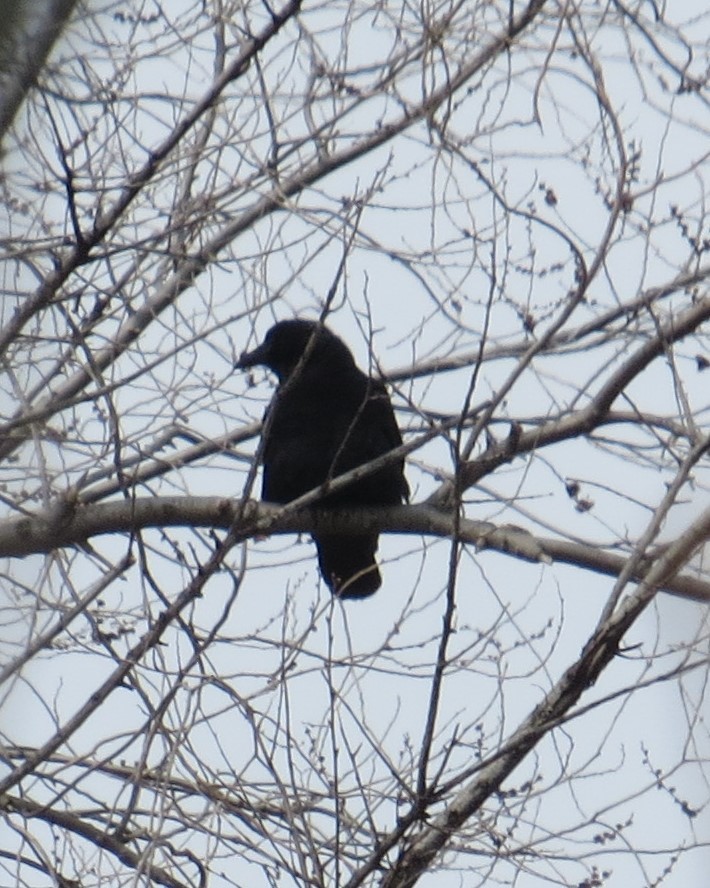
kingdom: Animalia
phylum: Chordata
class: Aves
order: Passeriformes
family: Corvidae
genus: Corvus
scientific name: Corvus brachyrhynchos
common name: American crow
